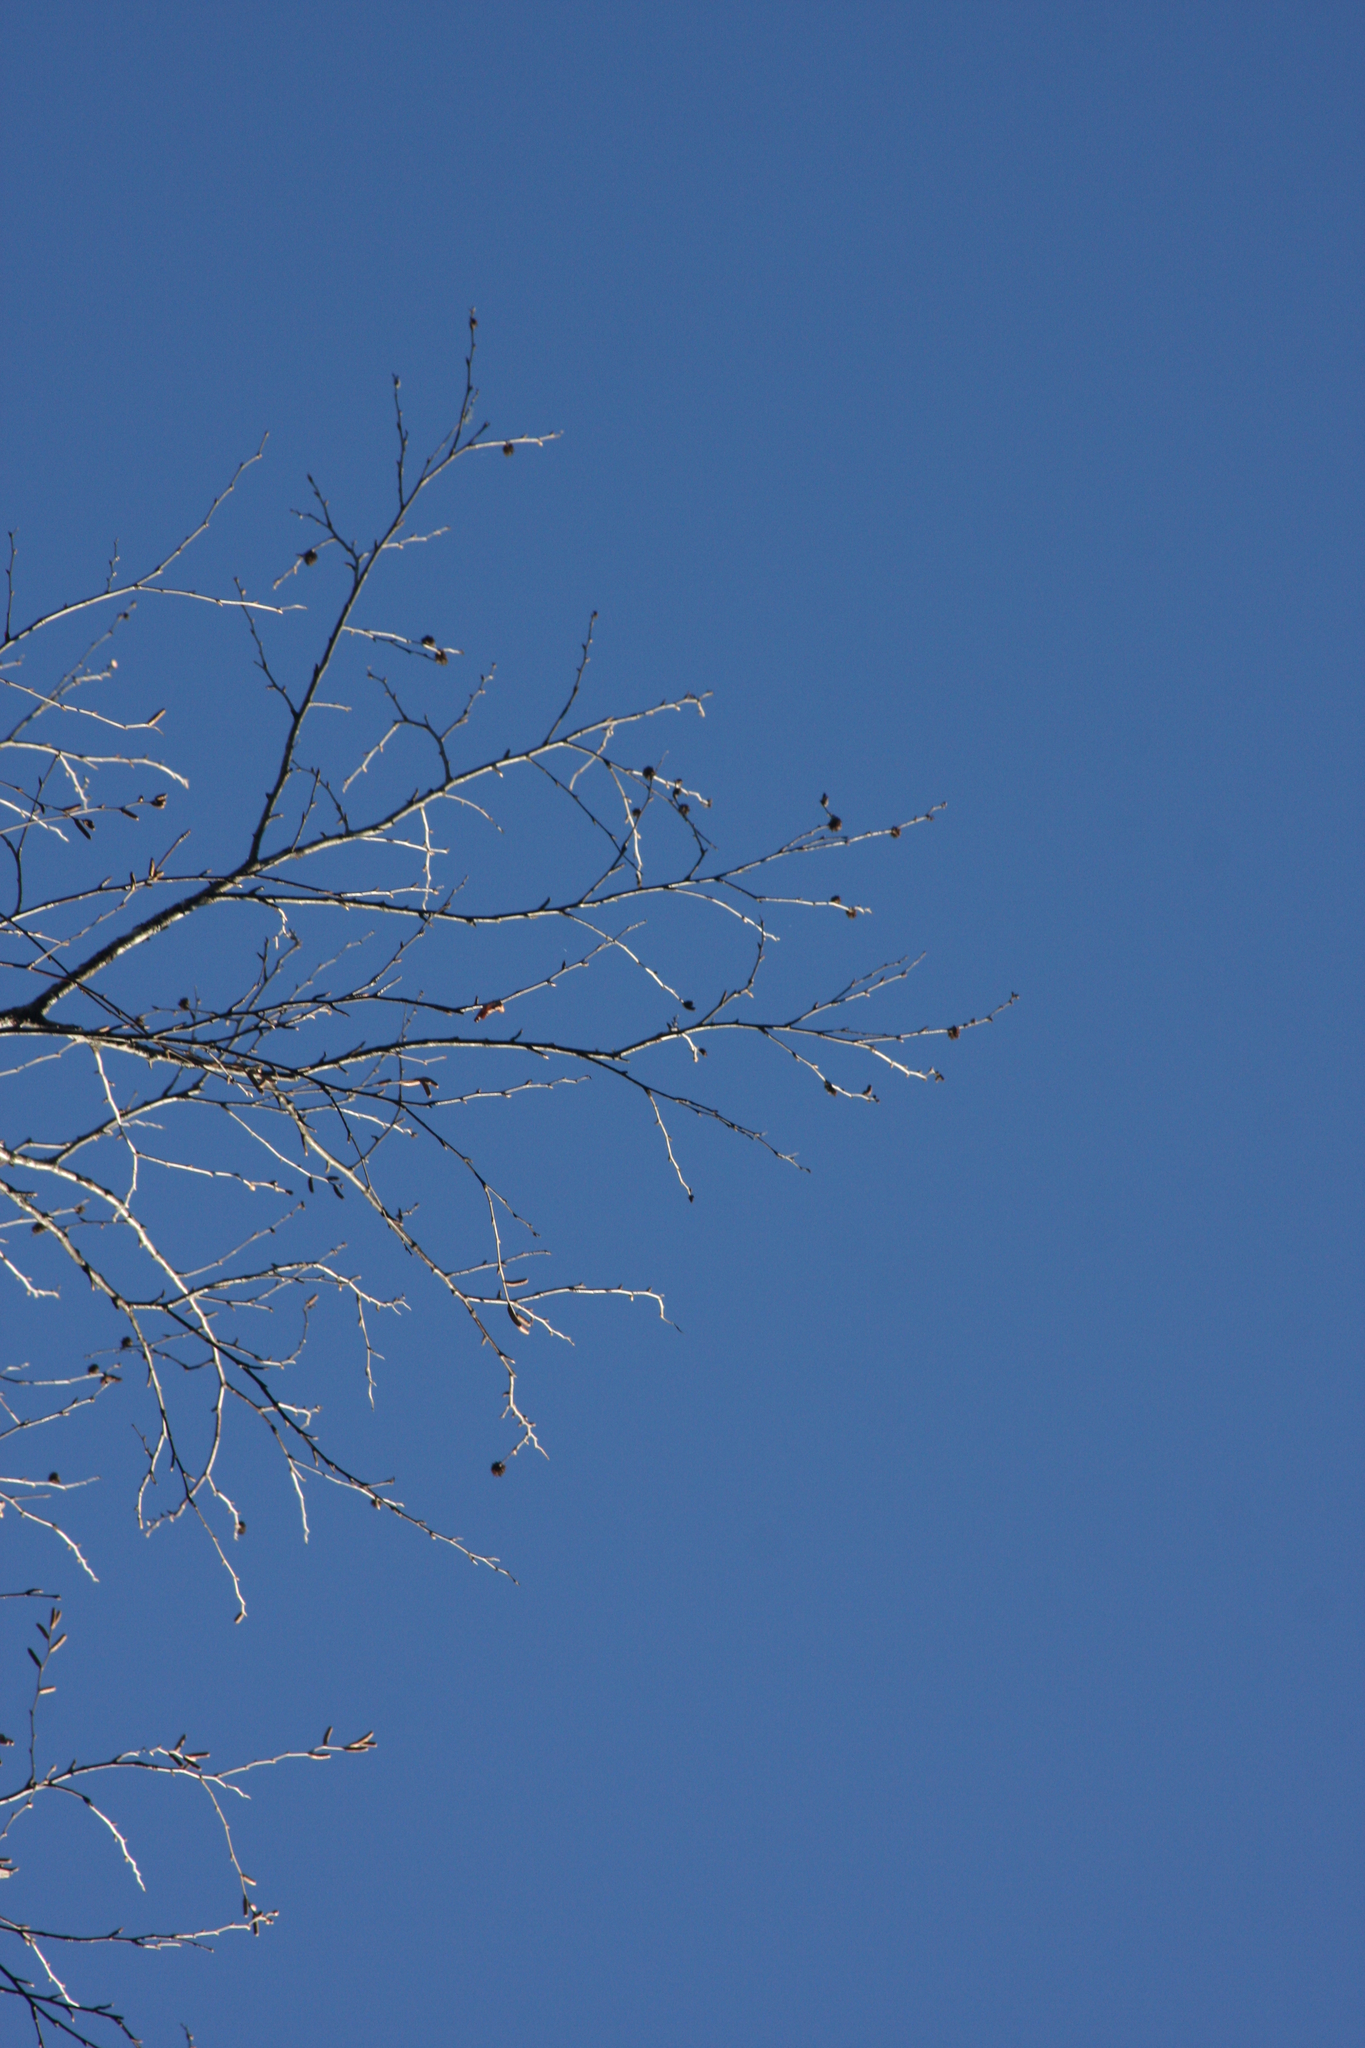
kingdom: Plantae
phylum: Tracheophyta
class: Magnoliopsida
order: Fagales
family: Betulaceae
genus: Betula
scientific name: Betula alleghaniensis
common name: Yellow birch
